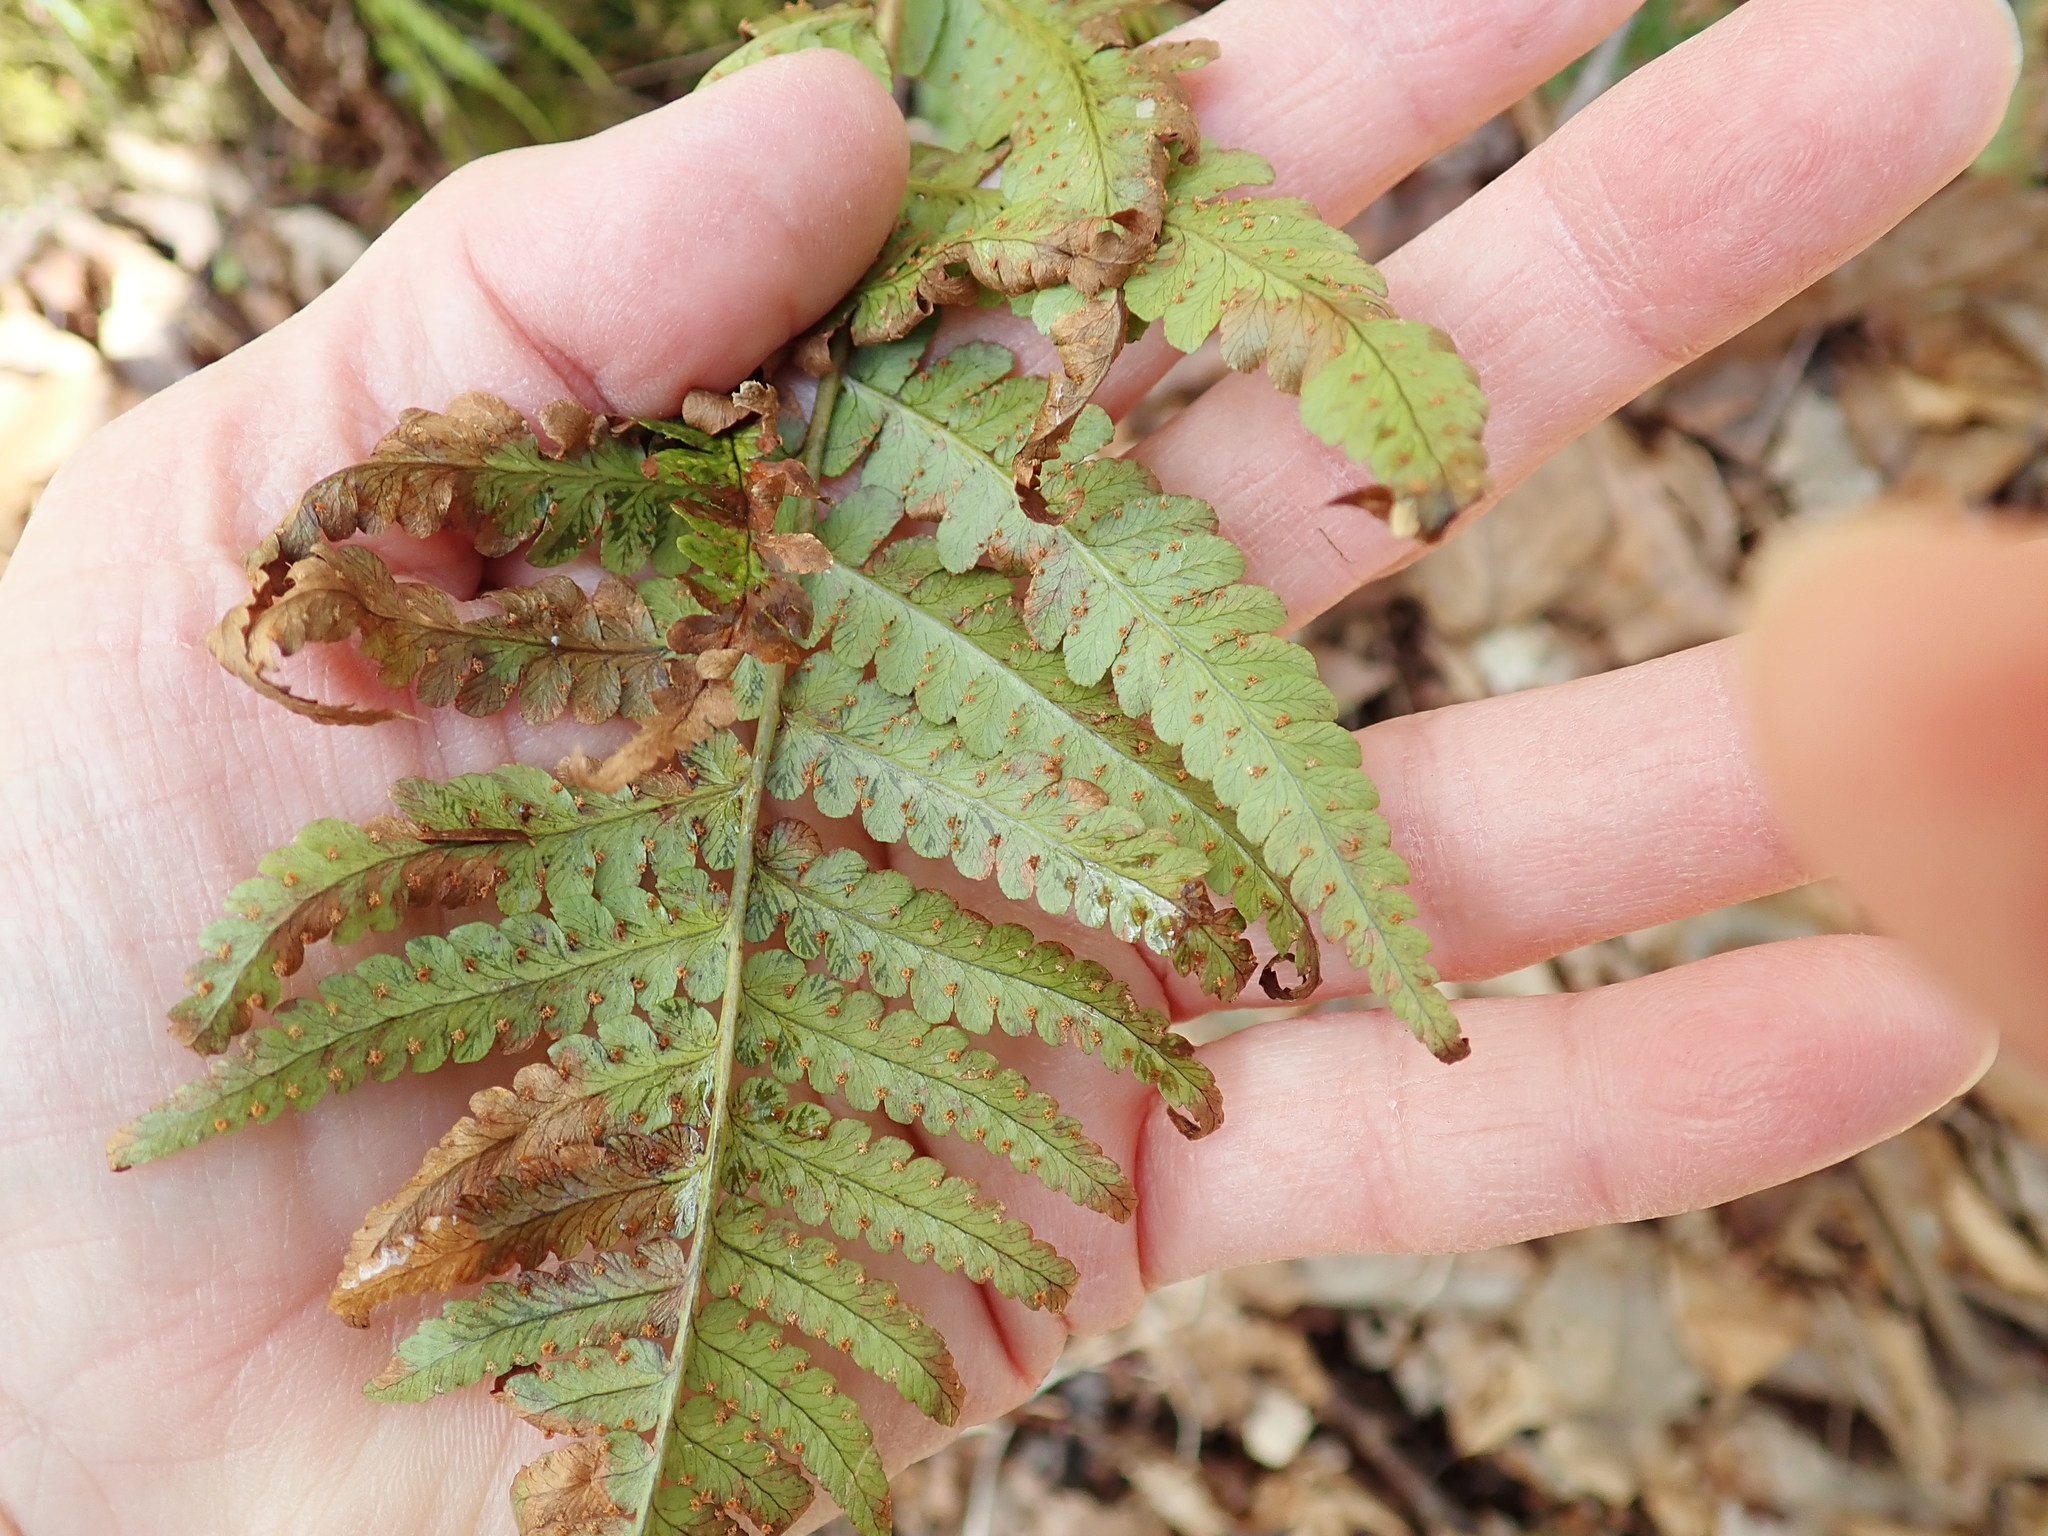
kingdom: Plantae
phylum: Tracheophyta
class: Polypodiopsida
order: Polypodiales
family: Dryopteridaceae
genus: Dryopteris
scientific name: Dryopteris marginalis
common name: Marginal wood fern
